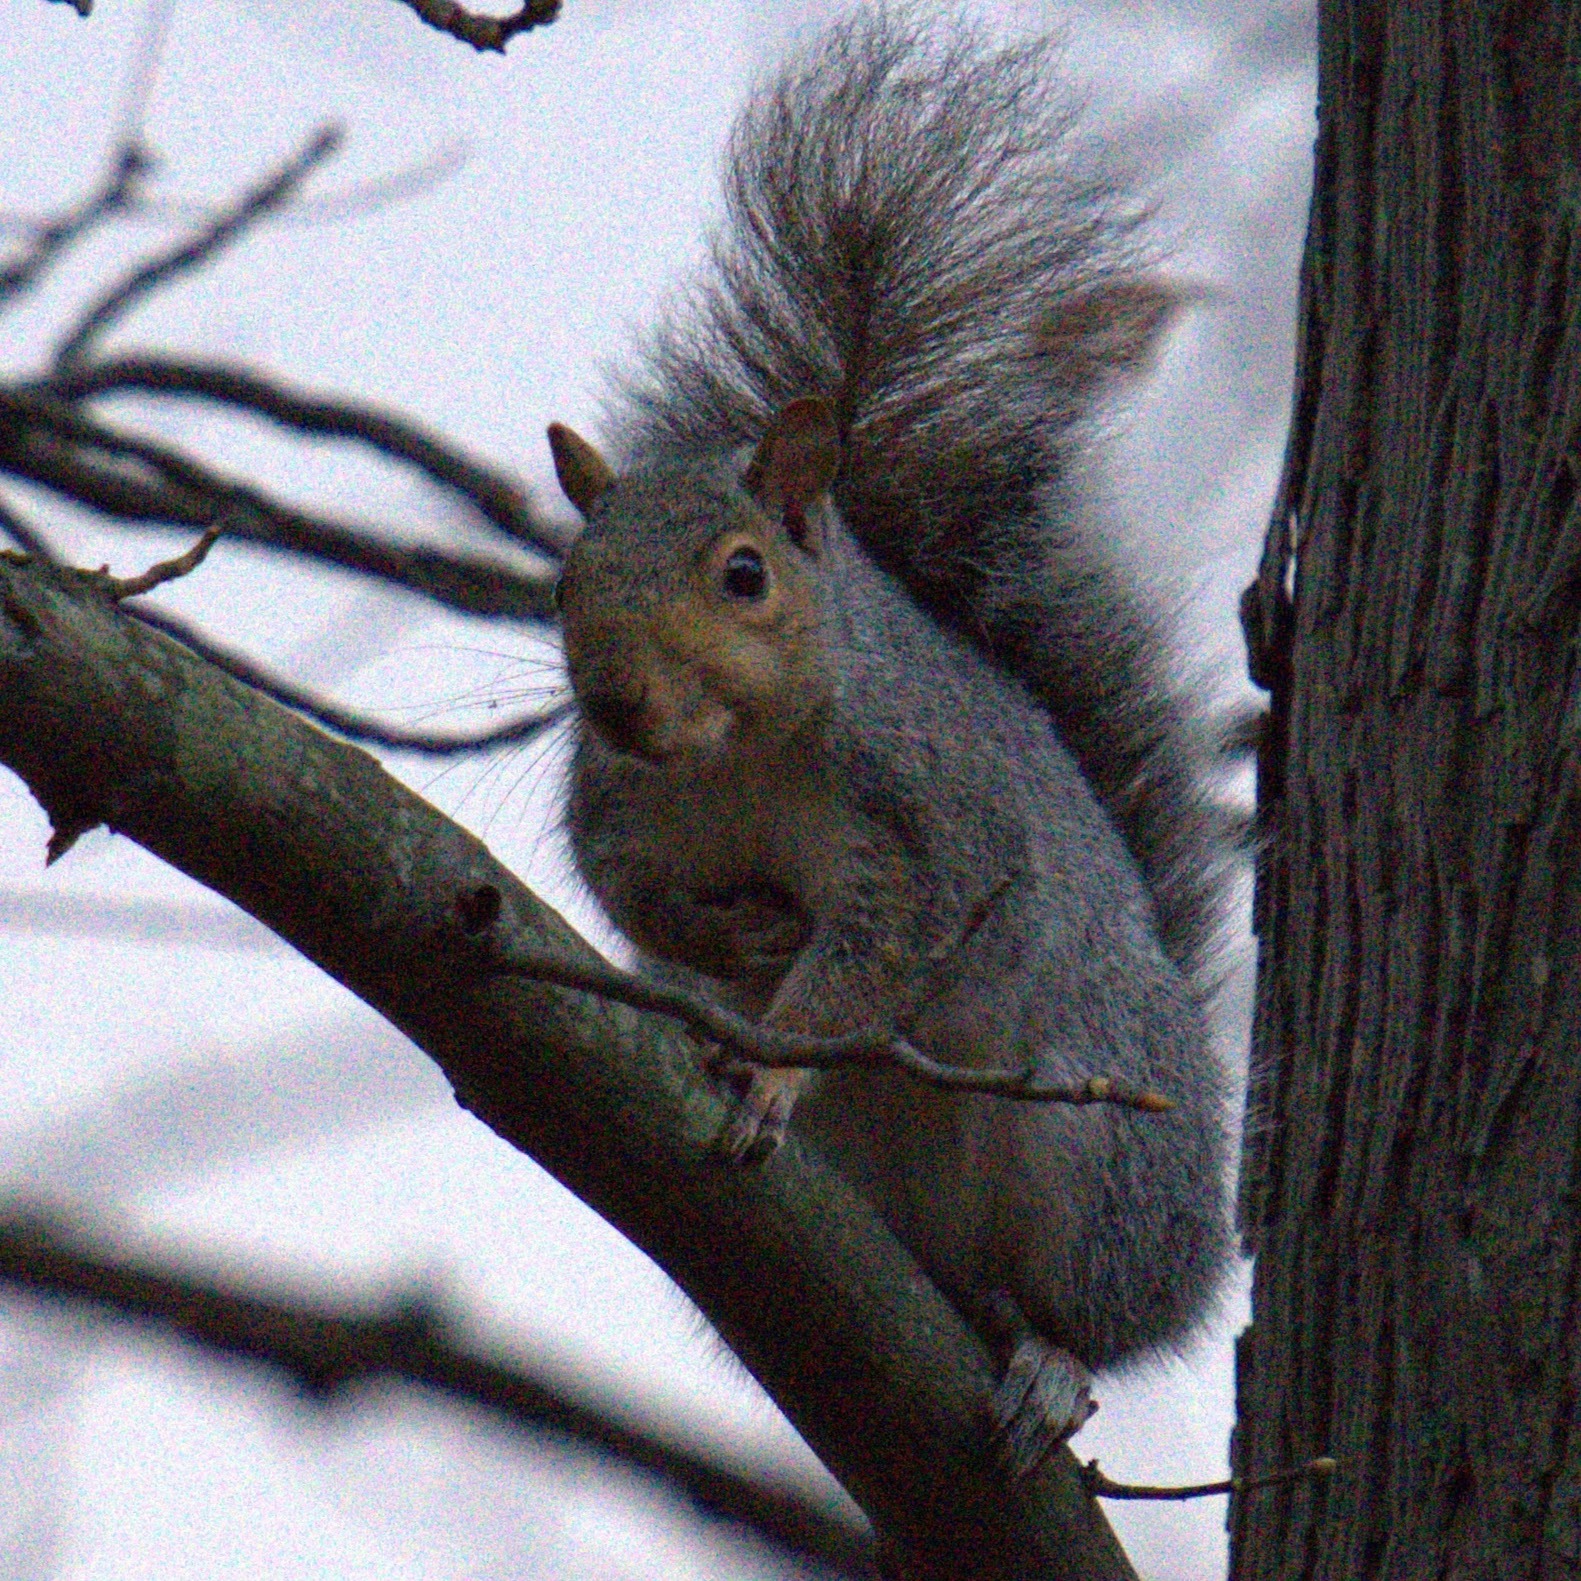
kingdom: Animalia
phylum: Chordata
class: Mammalia
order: Rodentia
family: Sciuridae
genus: Sciurus
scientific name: Sciurus carolinensis
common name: Eastern gray squirrel
